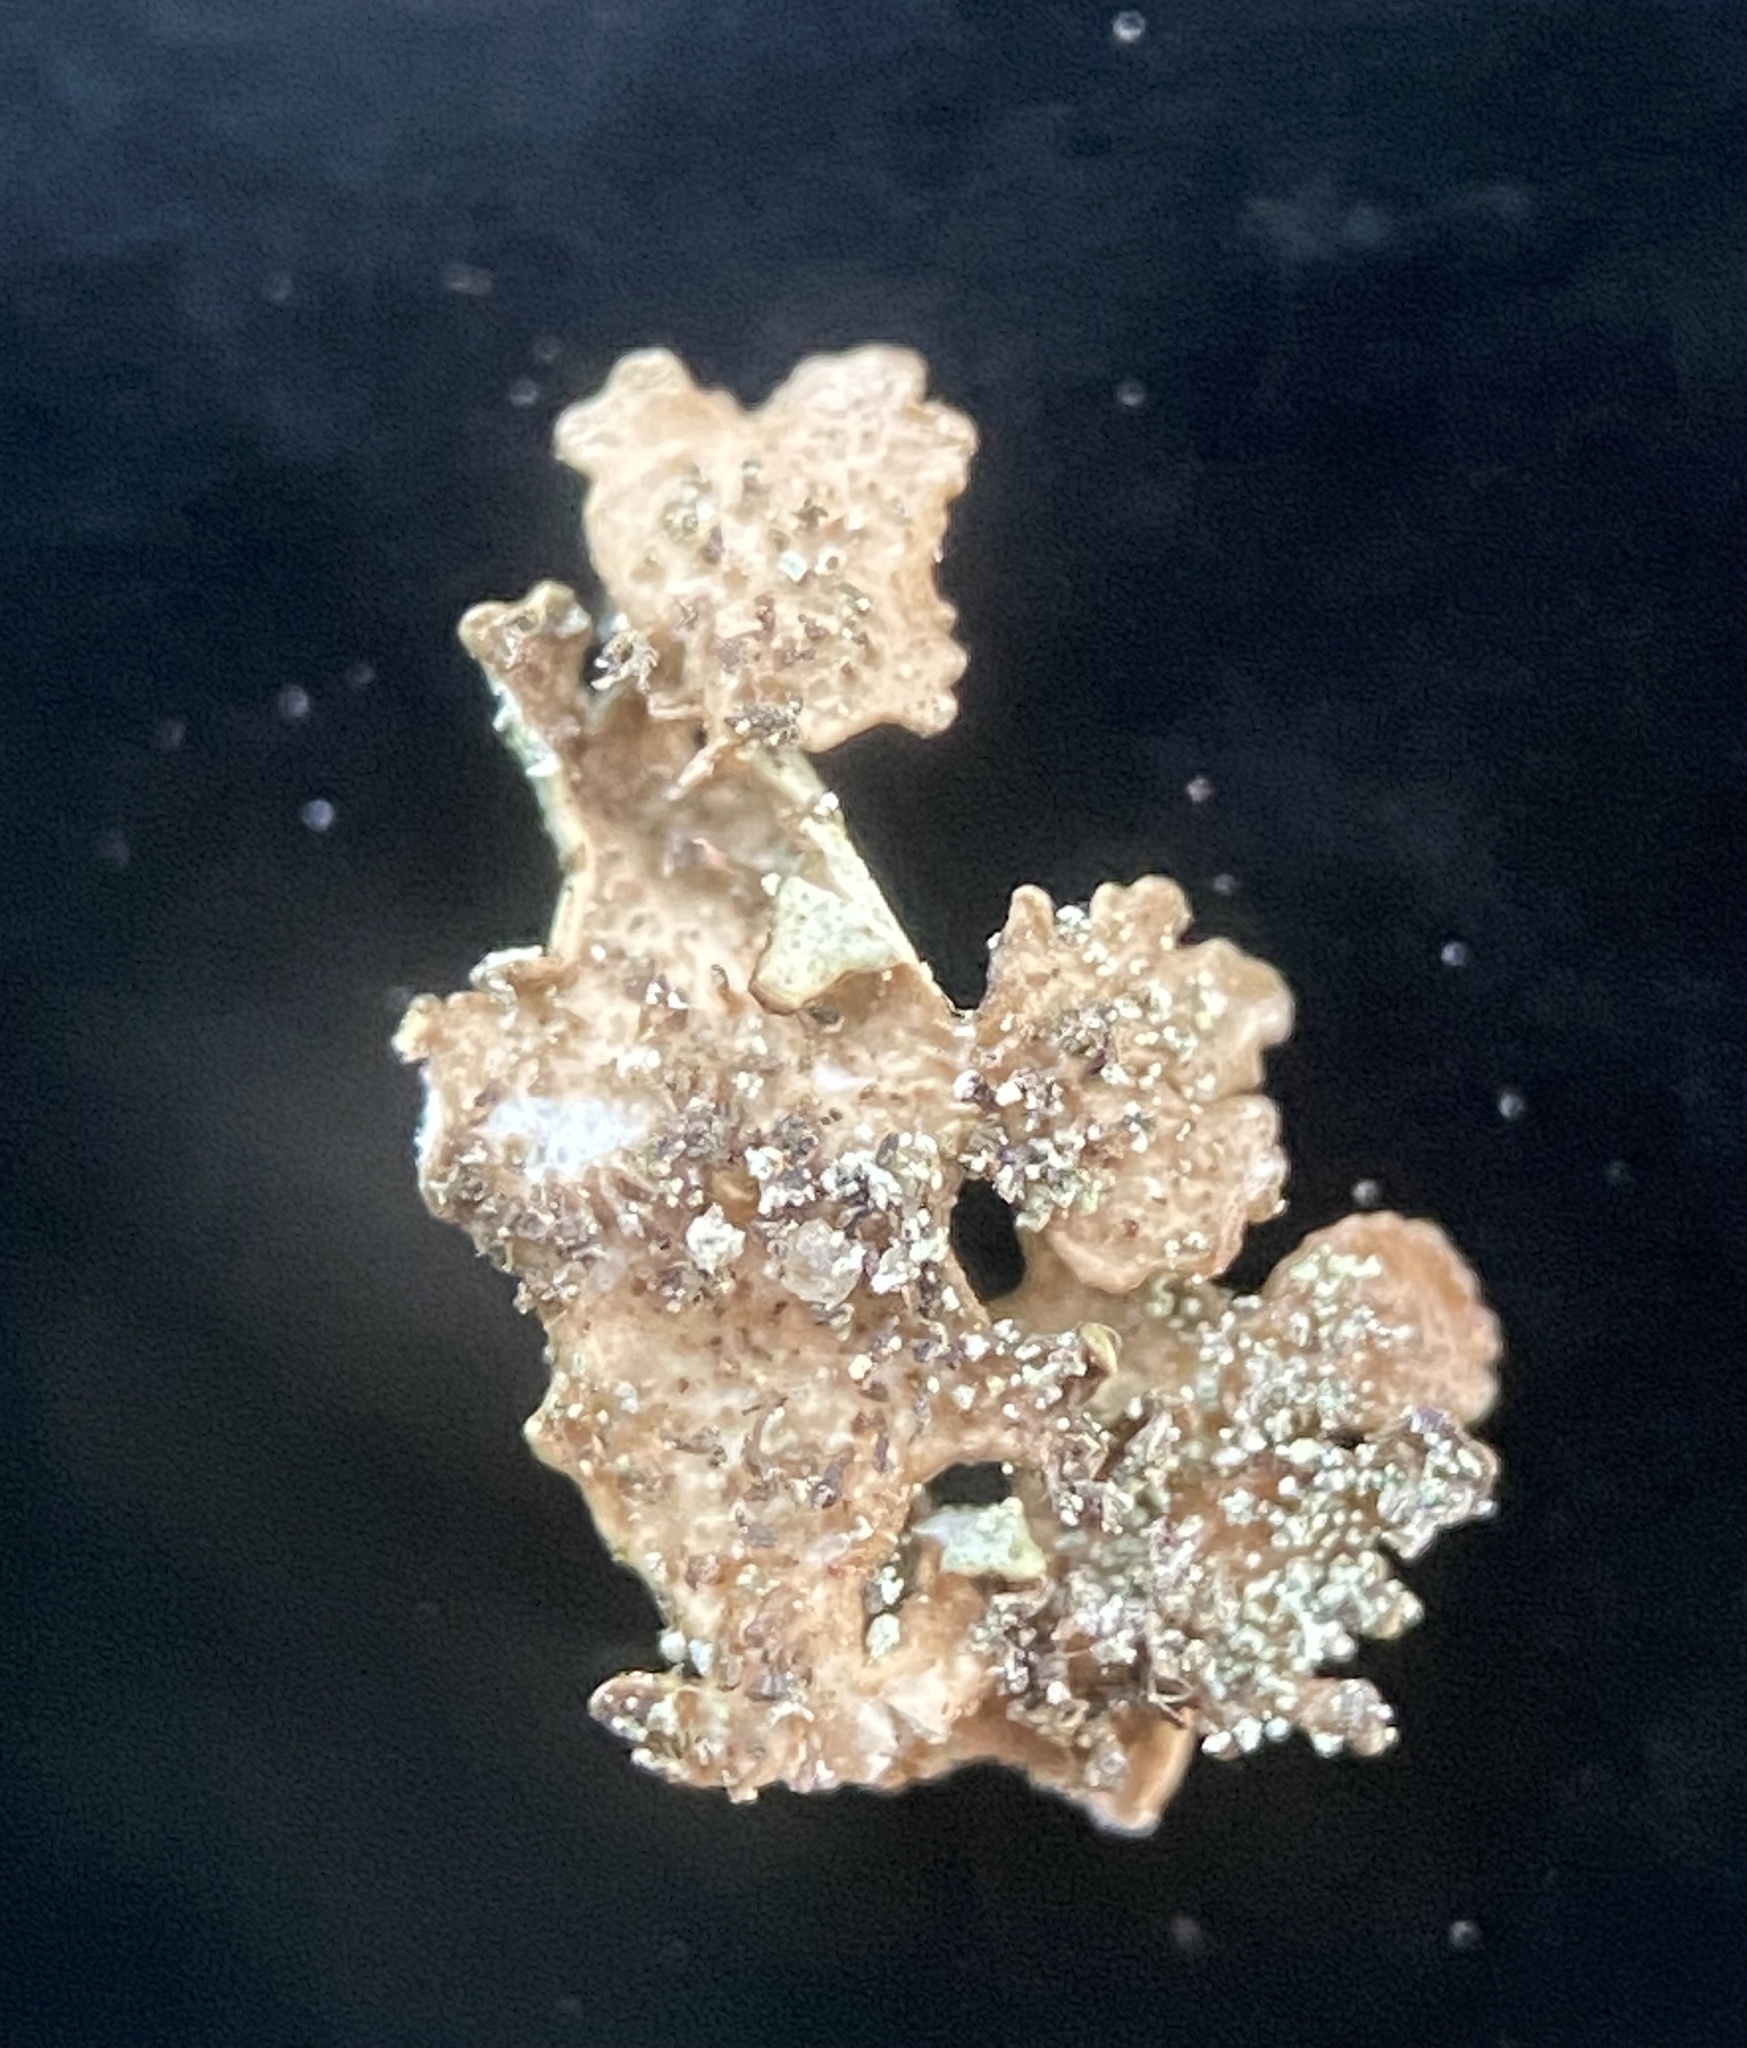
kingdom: Fungi
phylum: Ascomycota
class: Lecanoromycetes
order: Lecanorales
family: Parmeliaceae
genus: Xanthoparmelia
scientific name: Xanthoparmelia plittii
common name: Plitt's rock shield
